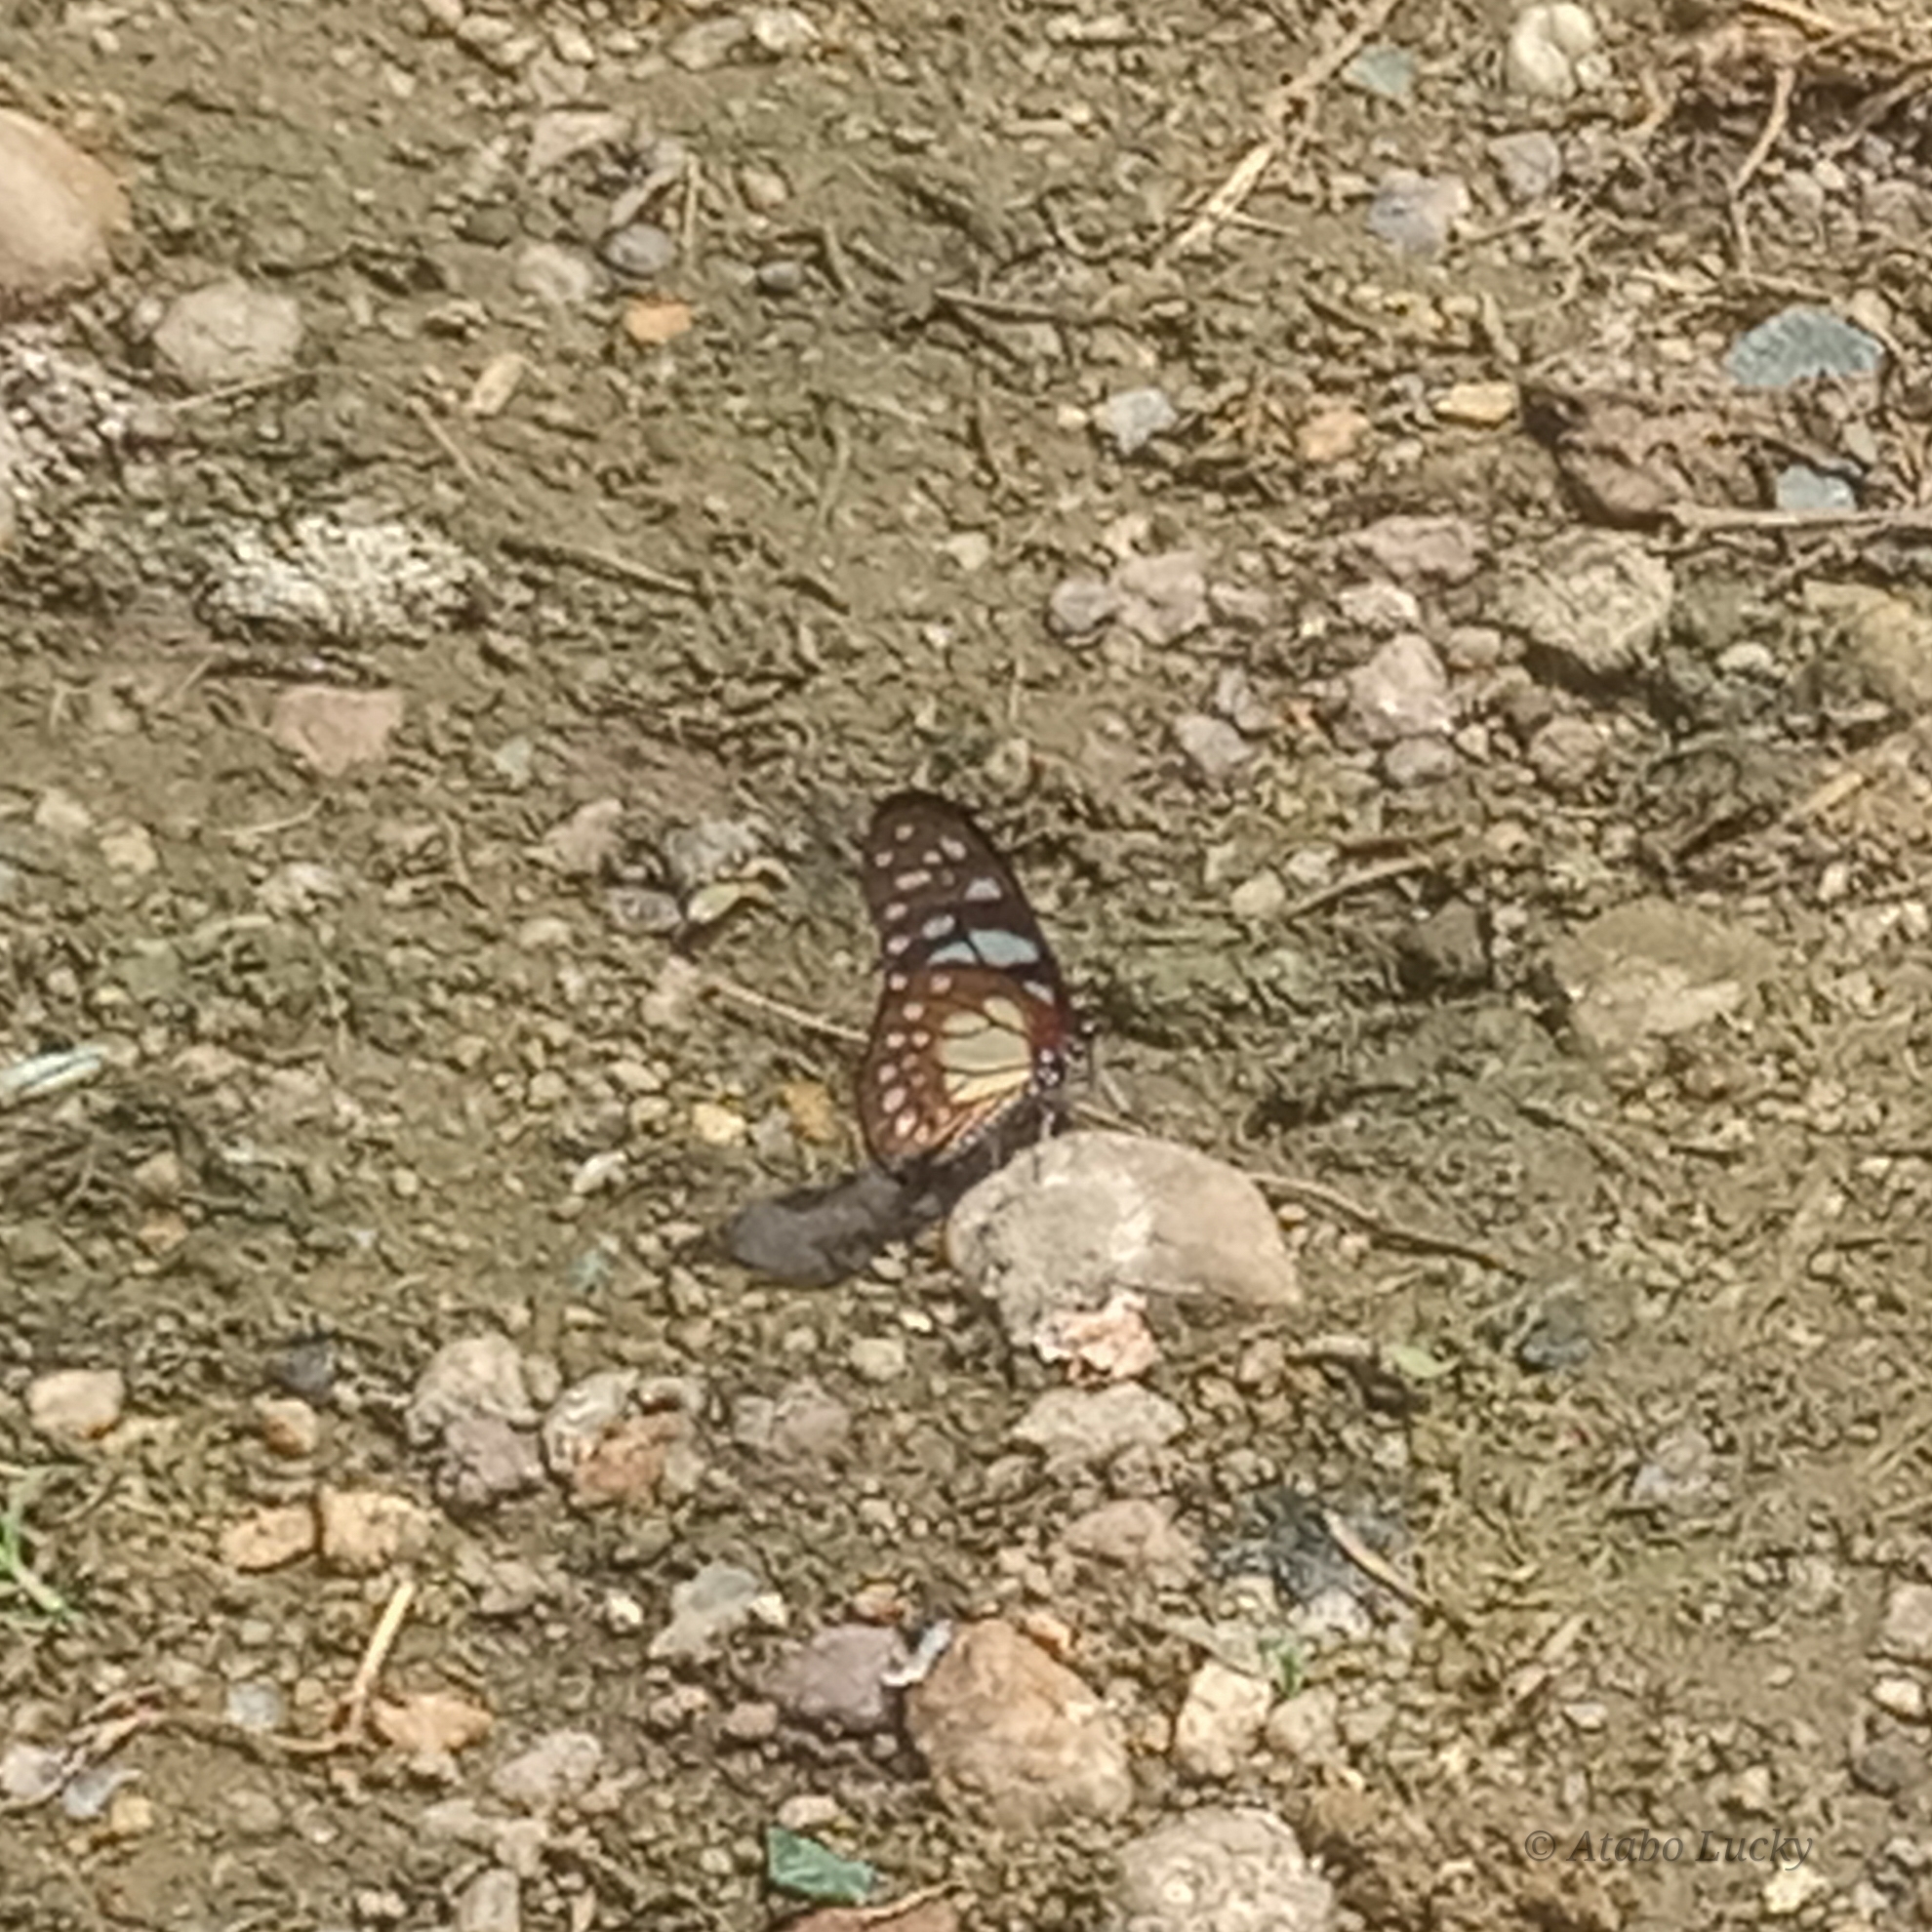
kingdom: Animalia
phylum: Arthropoda
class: Insecta
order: Lepidoptera
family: Papilionidae
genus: Graphium
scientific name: Graphium leonidas
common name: Common graphium
